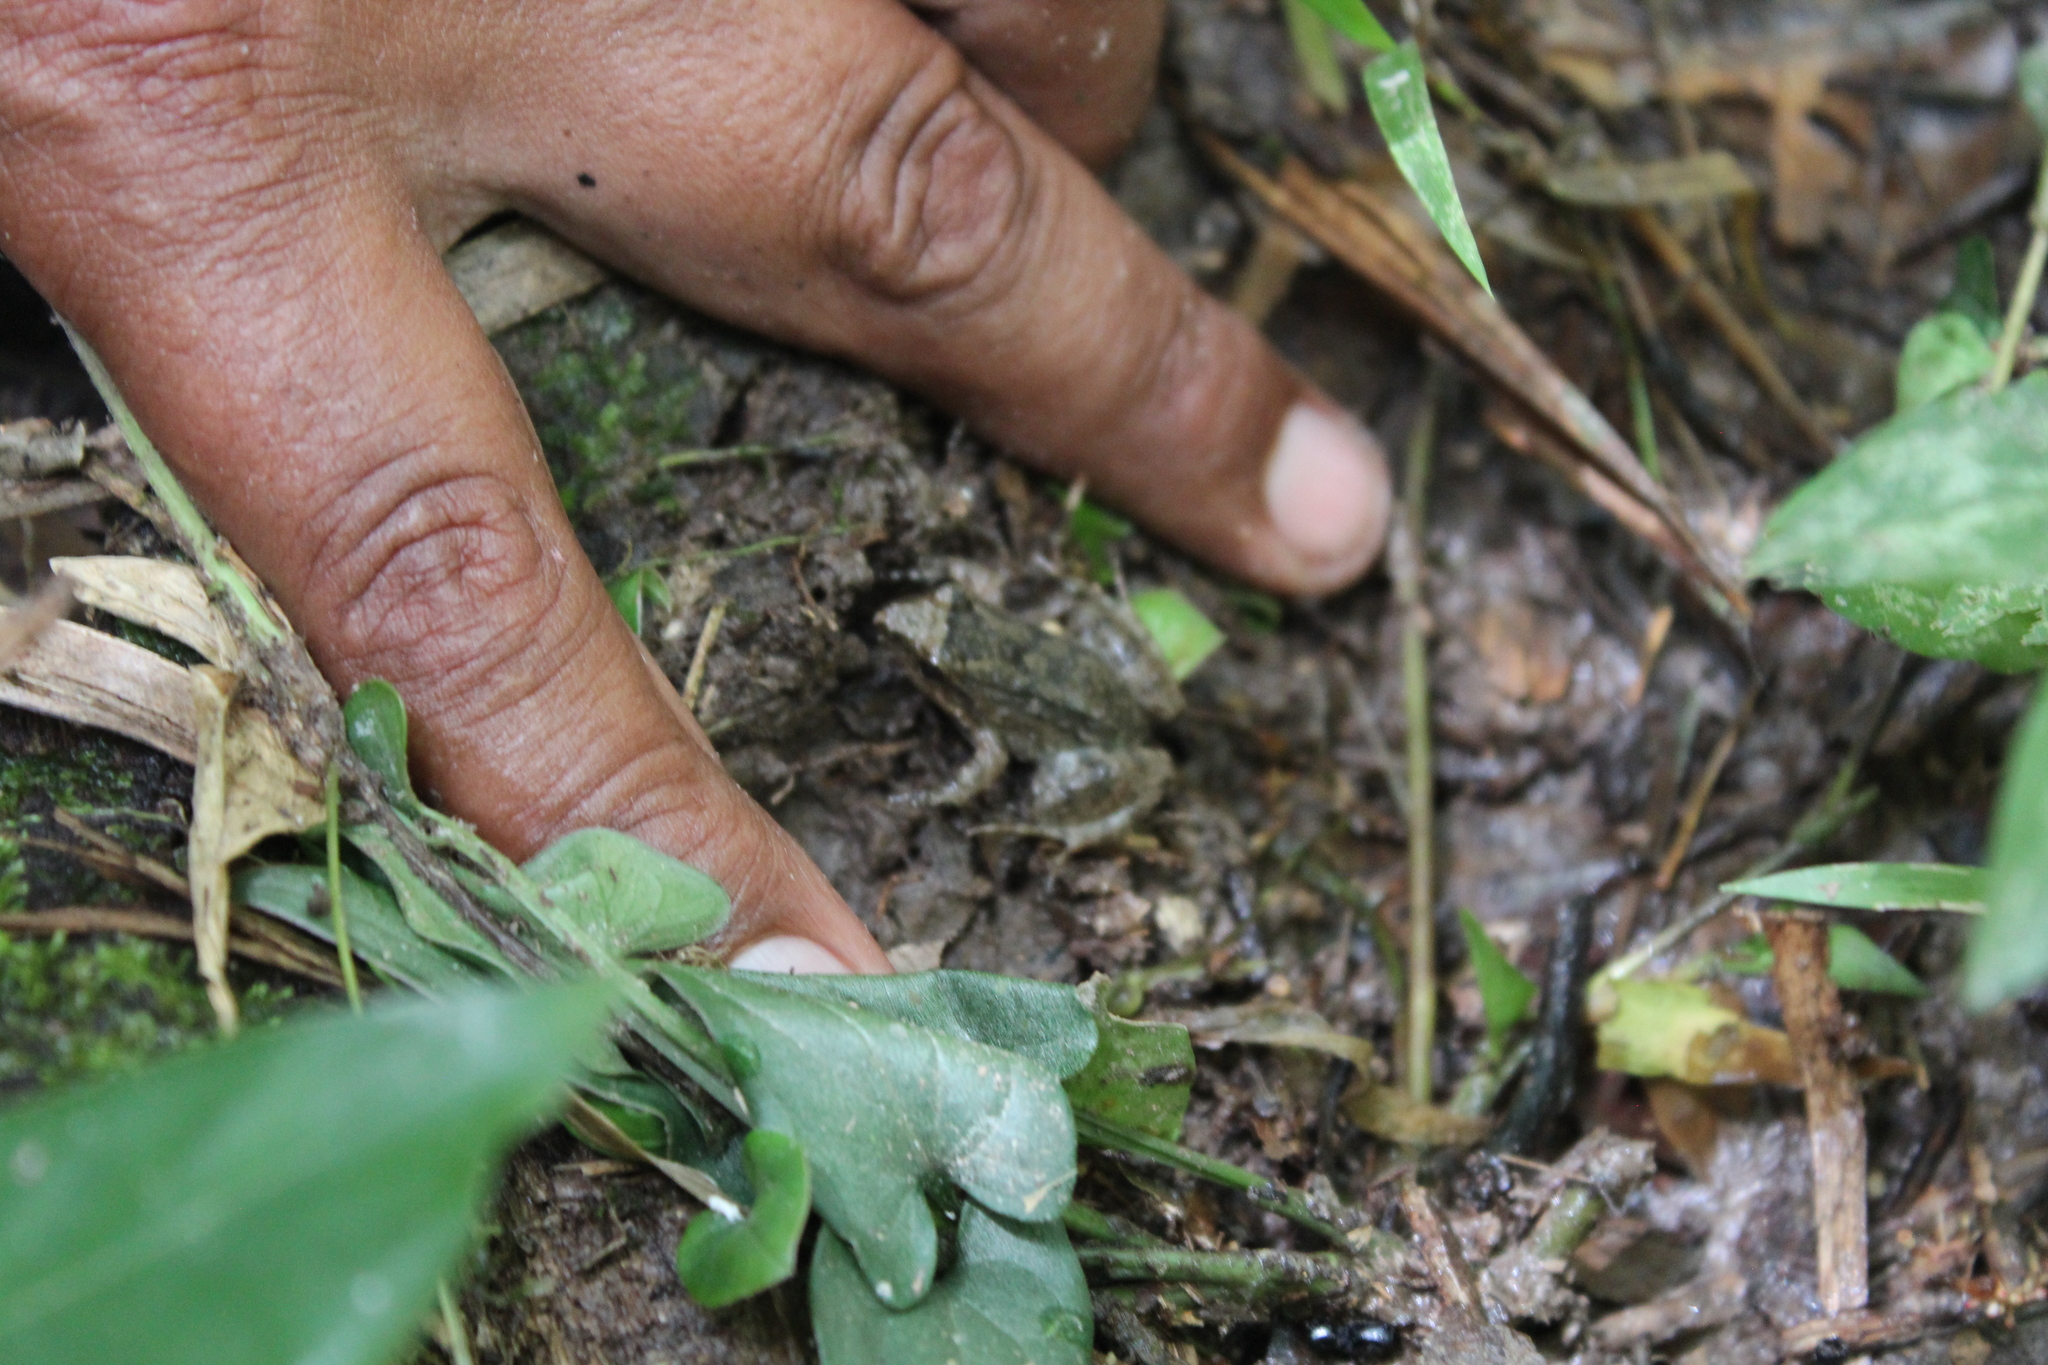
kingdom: Animalia
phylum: Chordata
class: Amphibia
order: Anura
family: Leptodactylidae
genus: Leptodactylus
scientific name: Leptodactylus leptodactyloides
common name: Common thin-toed frog
